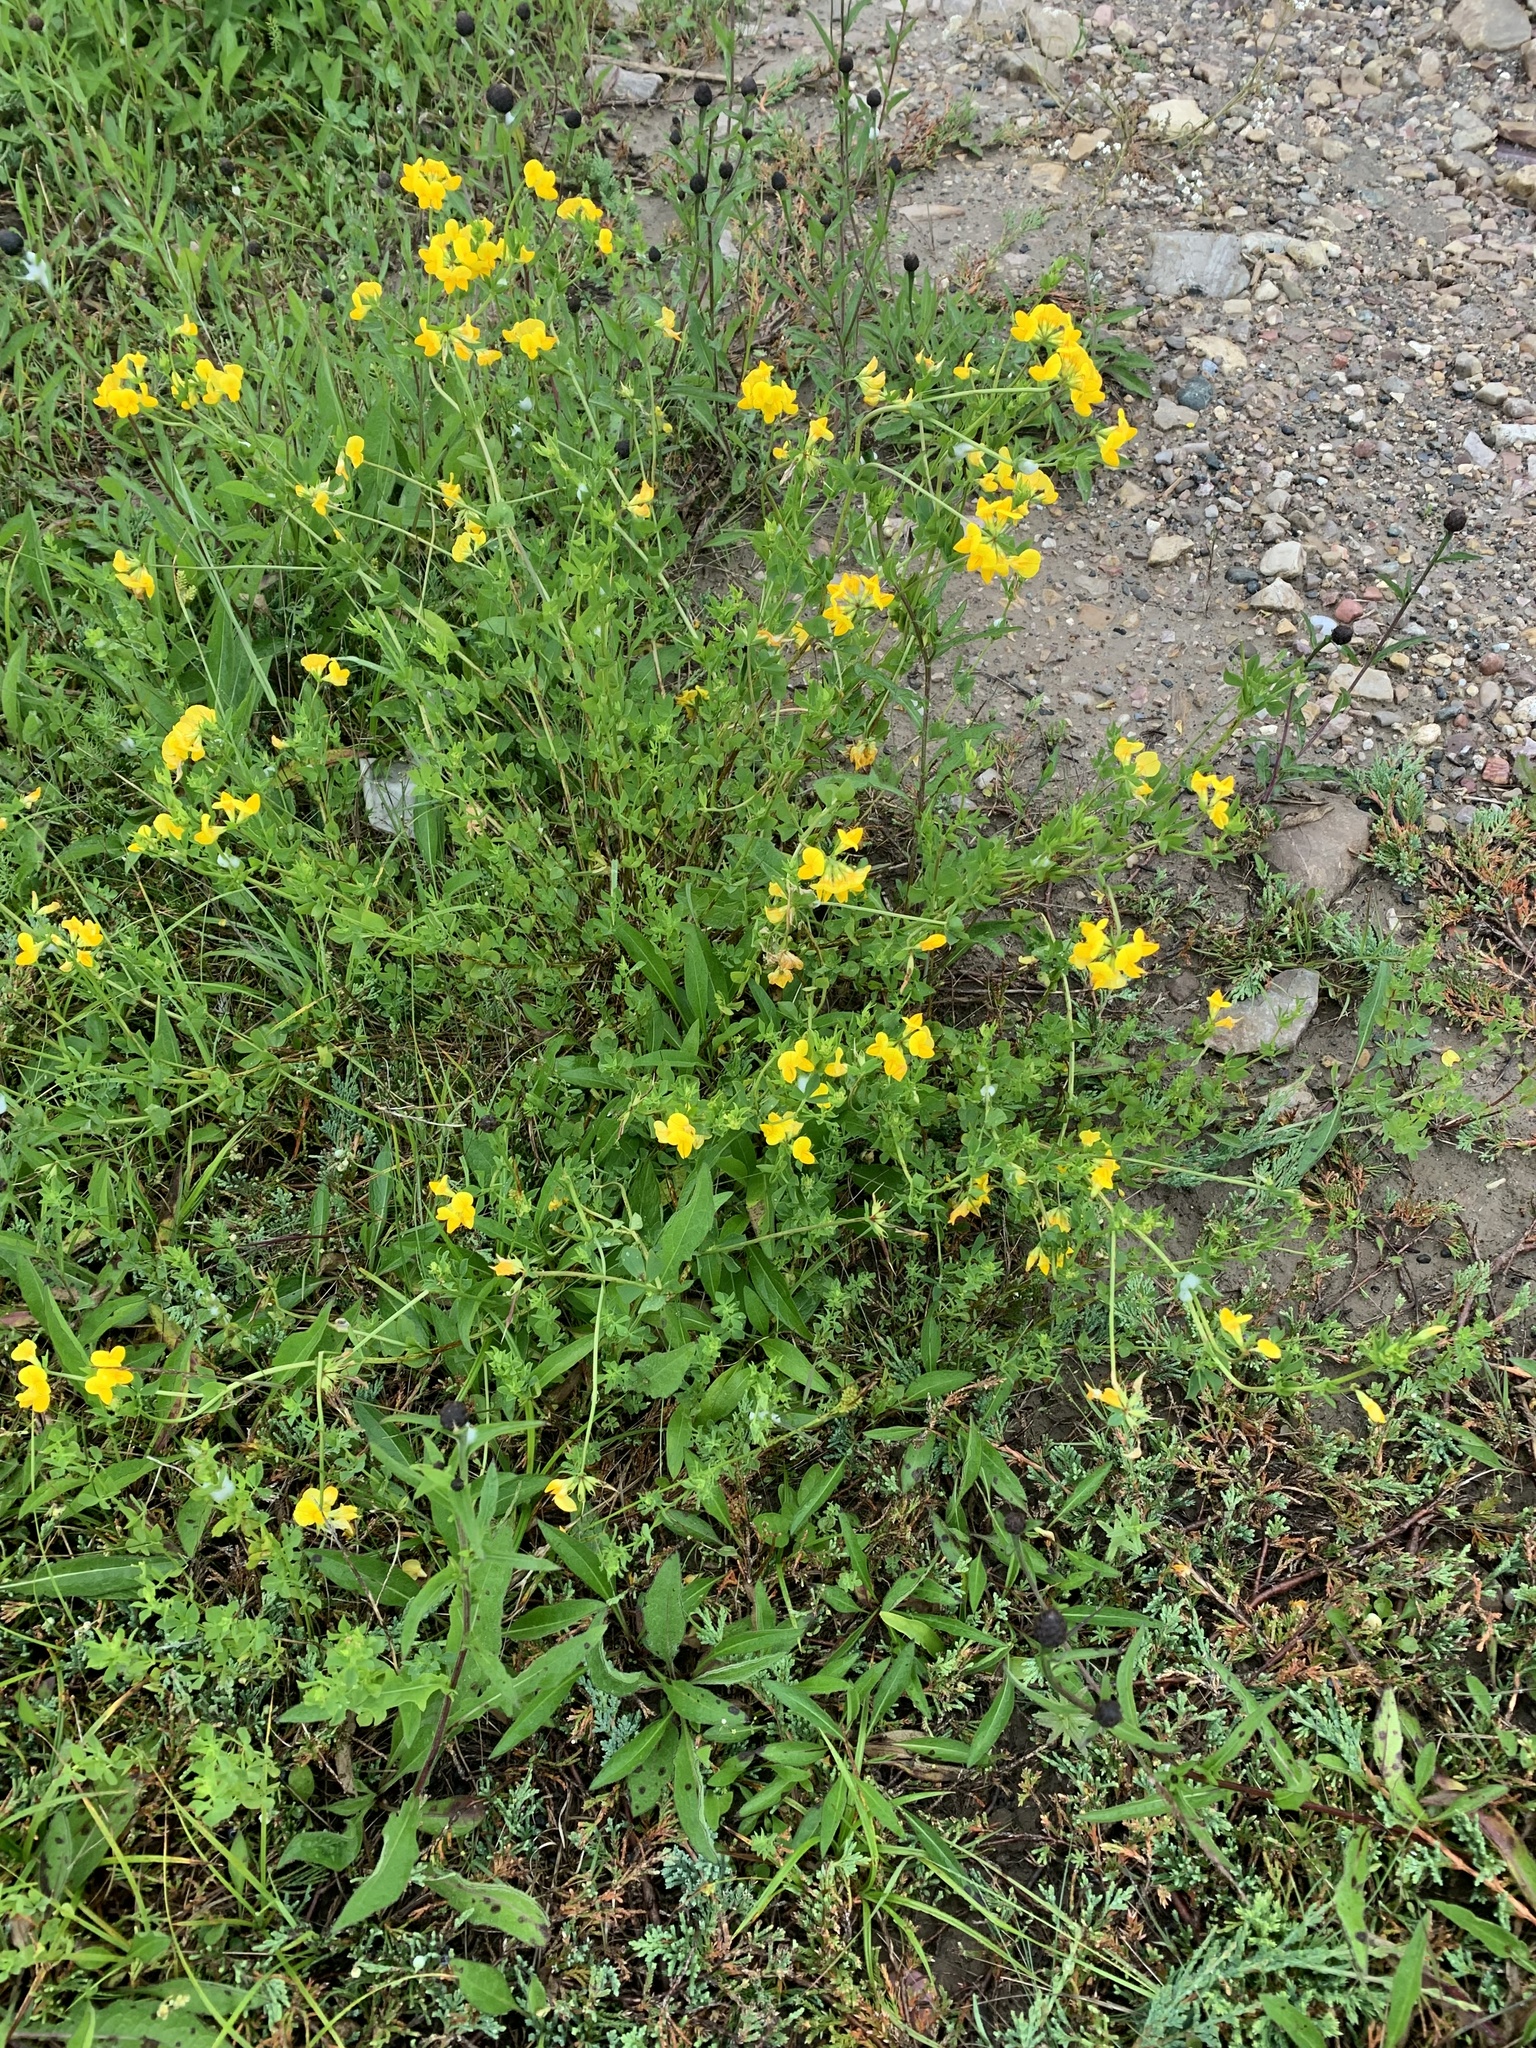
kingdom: Plantae
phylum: Tracheophyta
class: Magnoliopsida
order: Fabales
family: Fabaceae
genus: Lotus
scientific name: Lotus corniculatus
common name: Common bird's-foot-trefoil
